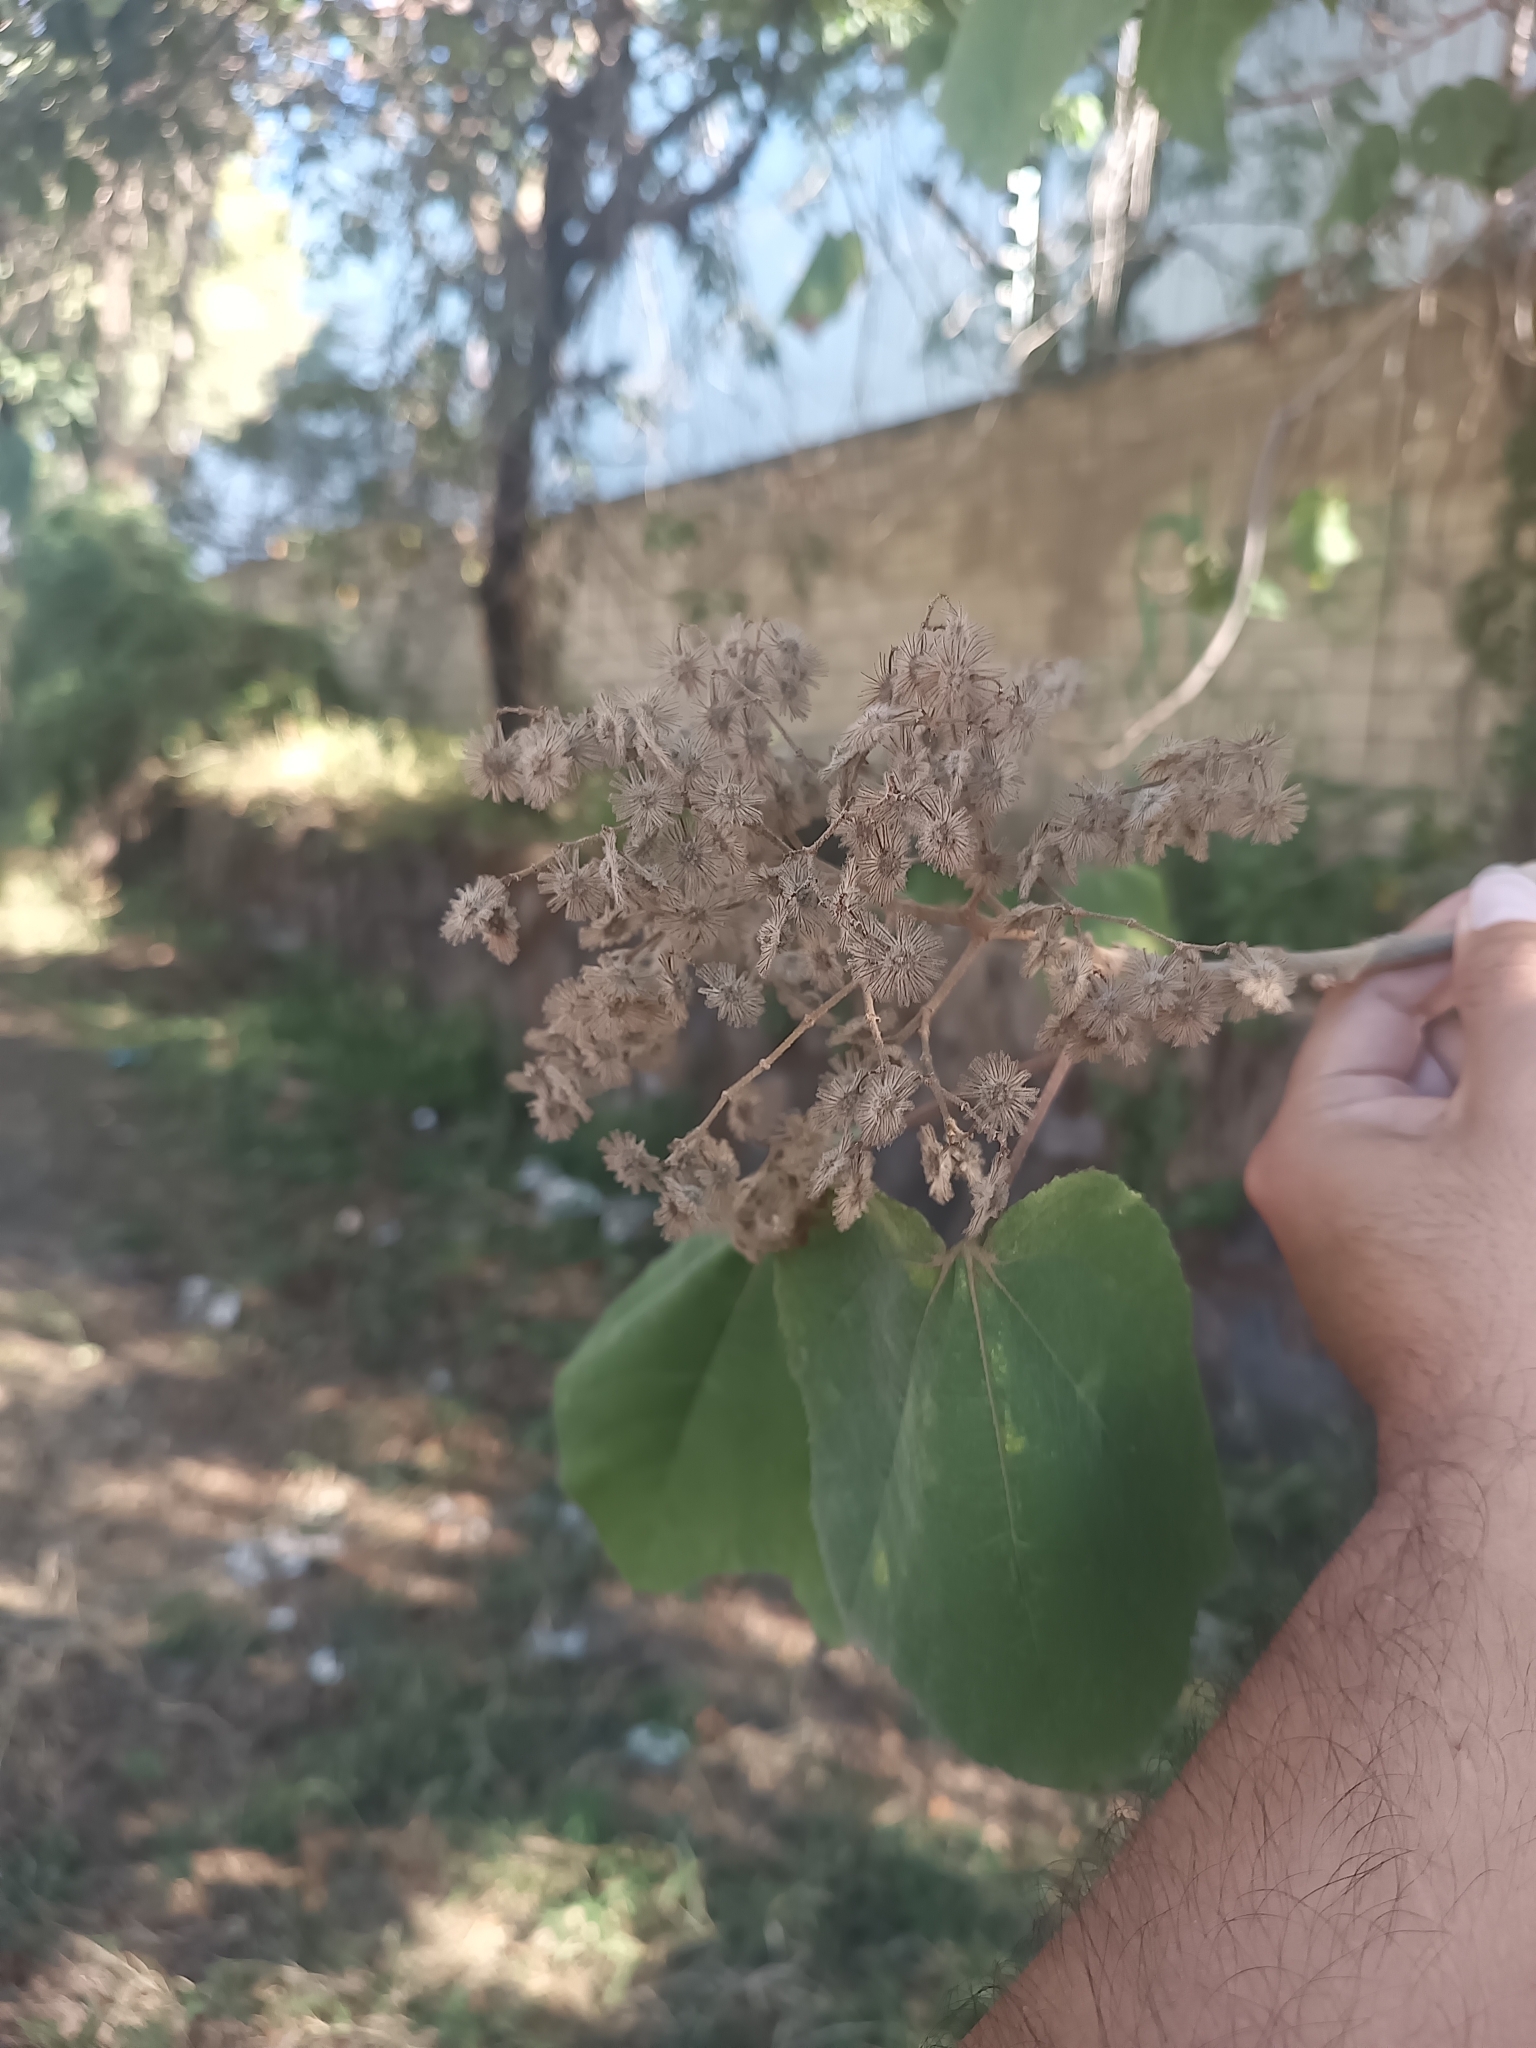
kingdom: Plantae
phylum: Tracheophyta
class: Magnoliopsida
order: Malvales
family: Malvaceae
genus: Heliocarpus
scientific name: Heliocarpus terebinthinaceus
